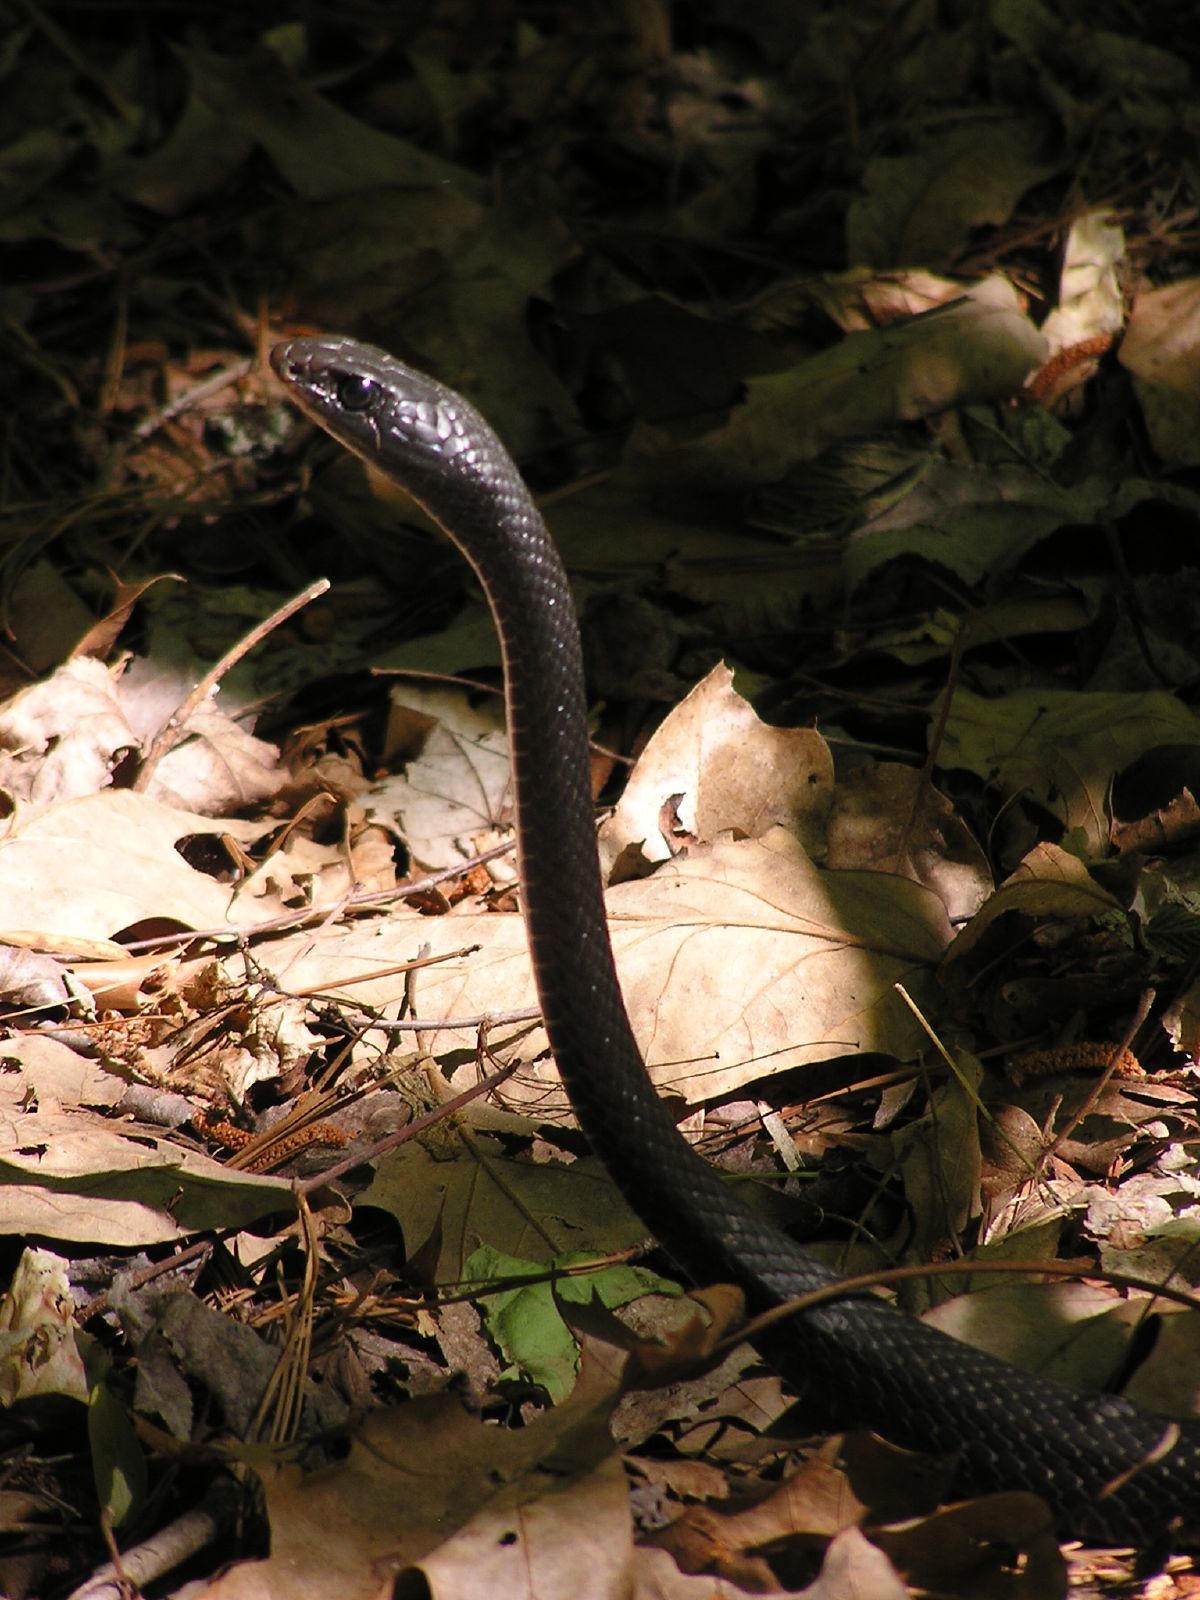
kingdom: Animalia
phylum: Chordata
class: Squamata
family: Colubridae
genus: Coluber
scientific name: Coluber constrictor
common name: Eastern racer
